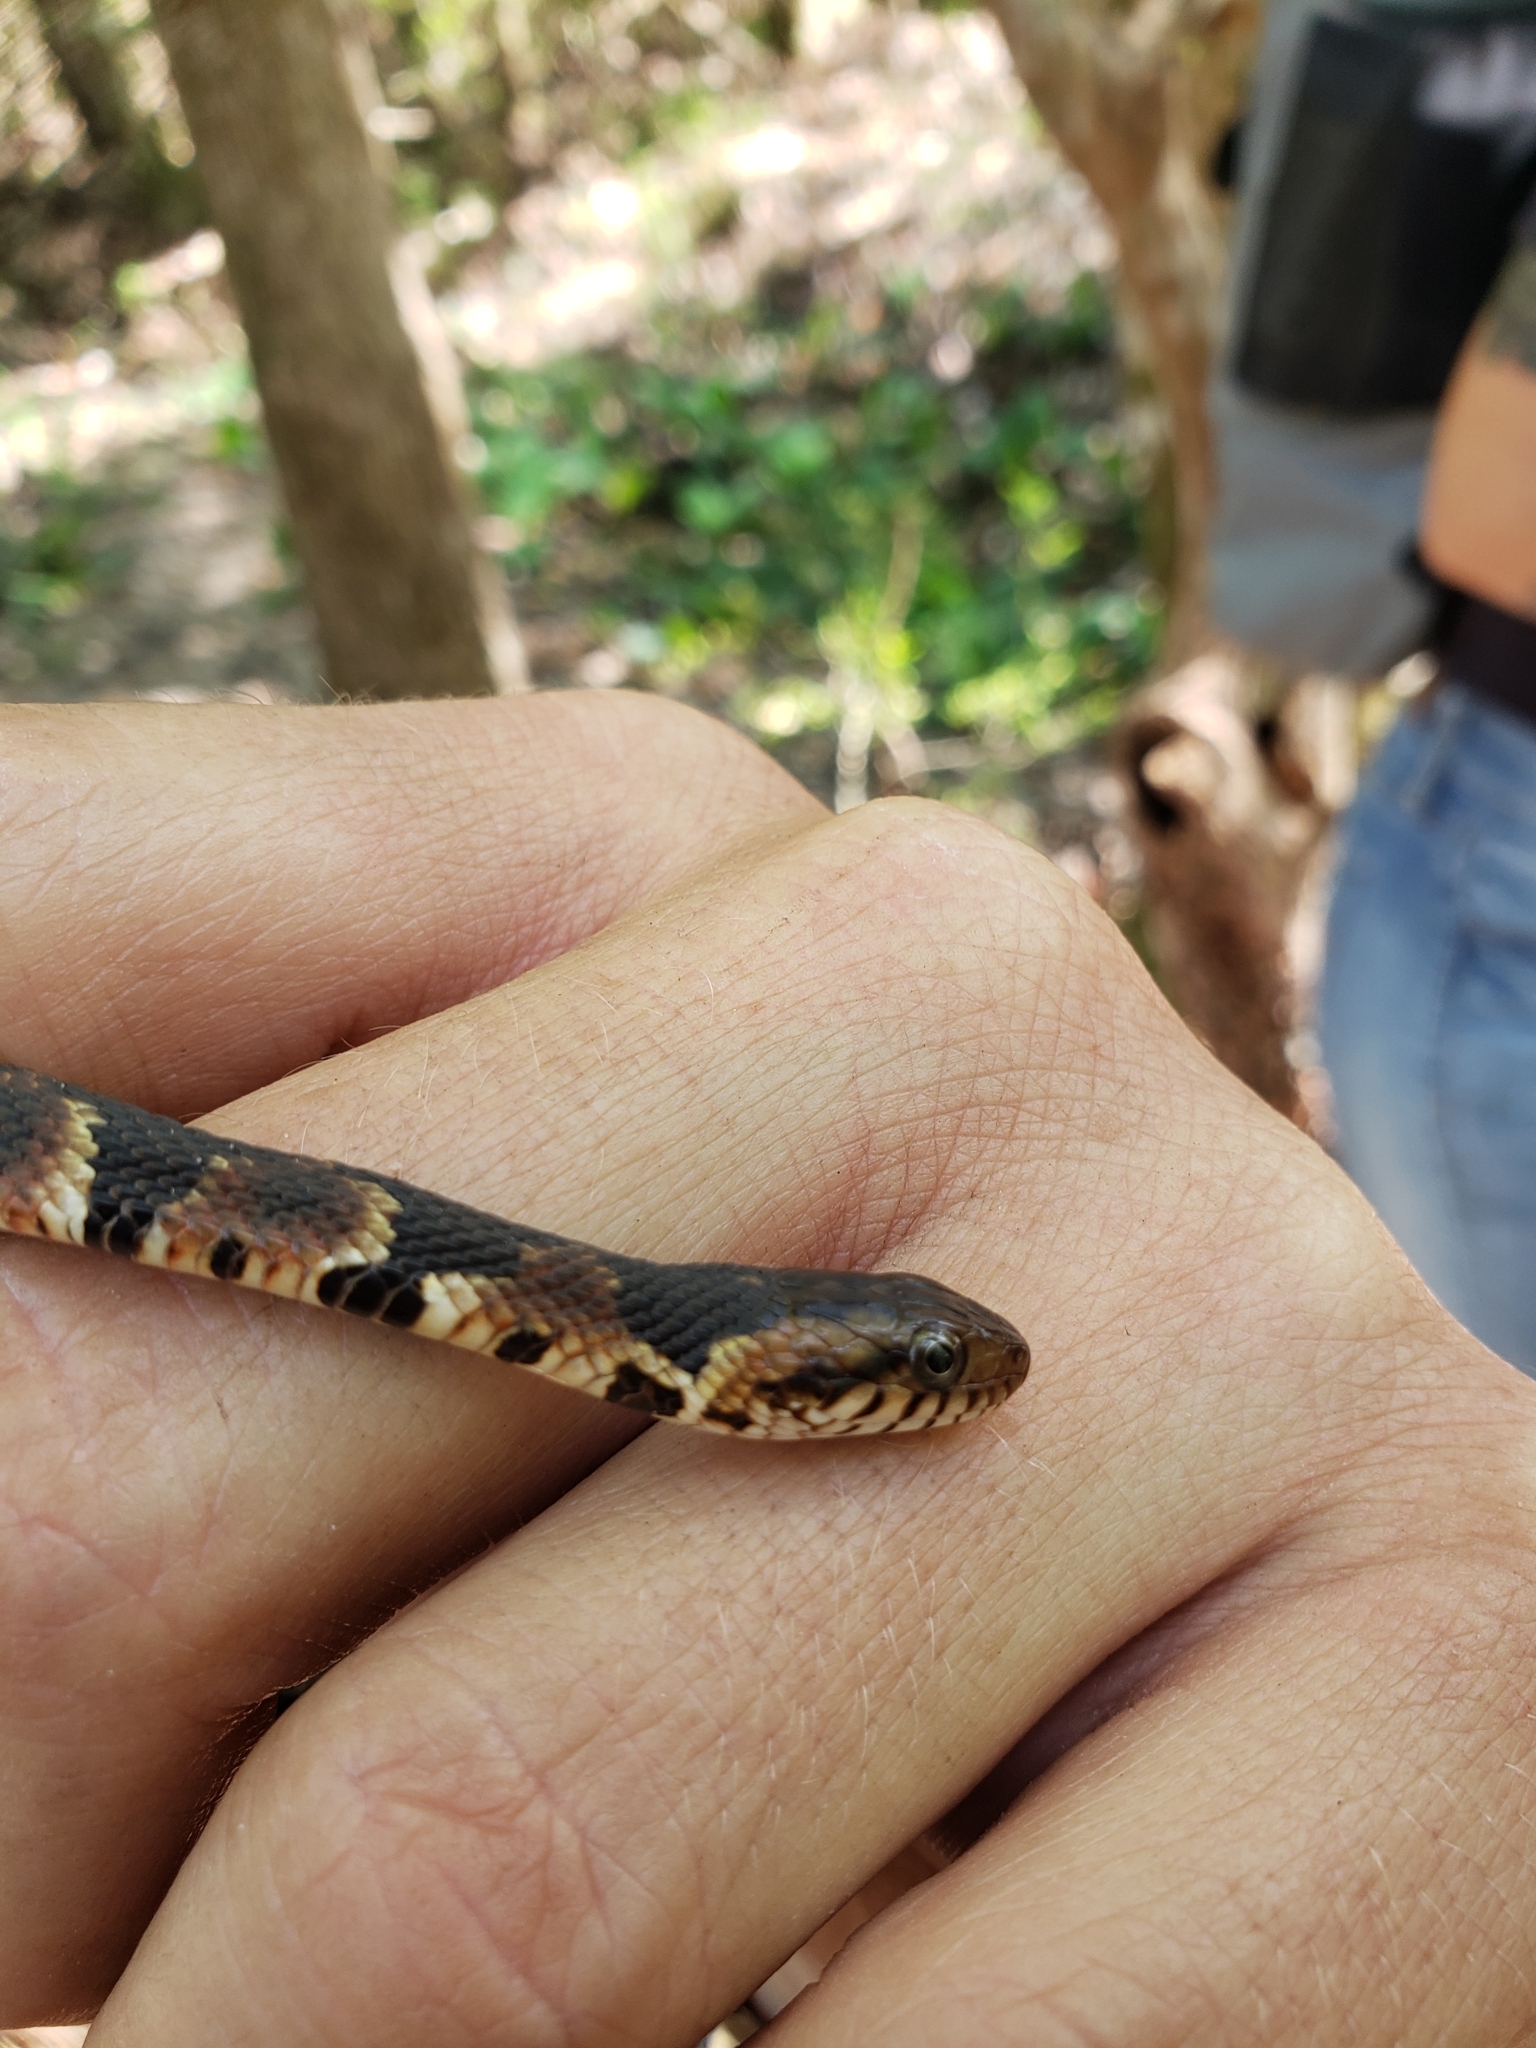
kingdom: Animalia
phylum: Chordata
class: Squamata
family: Colubridae
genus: Nerodia
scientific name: Nerodia fasciata
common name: Southern water snake
